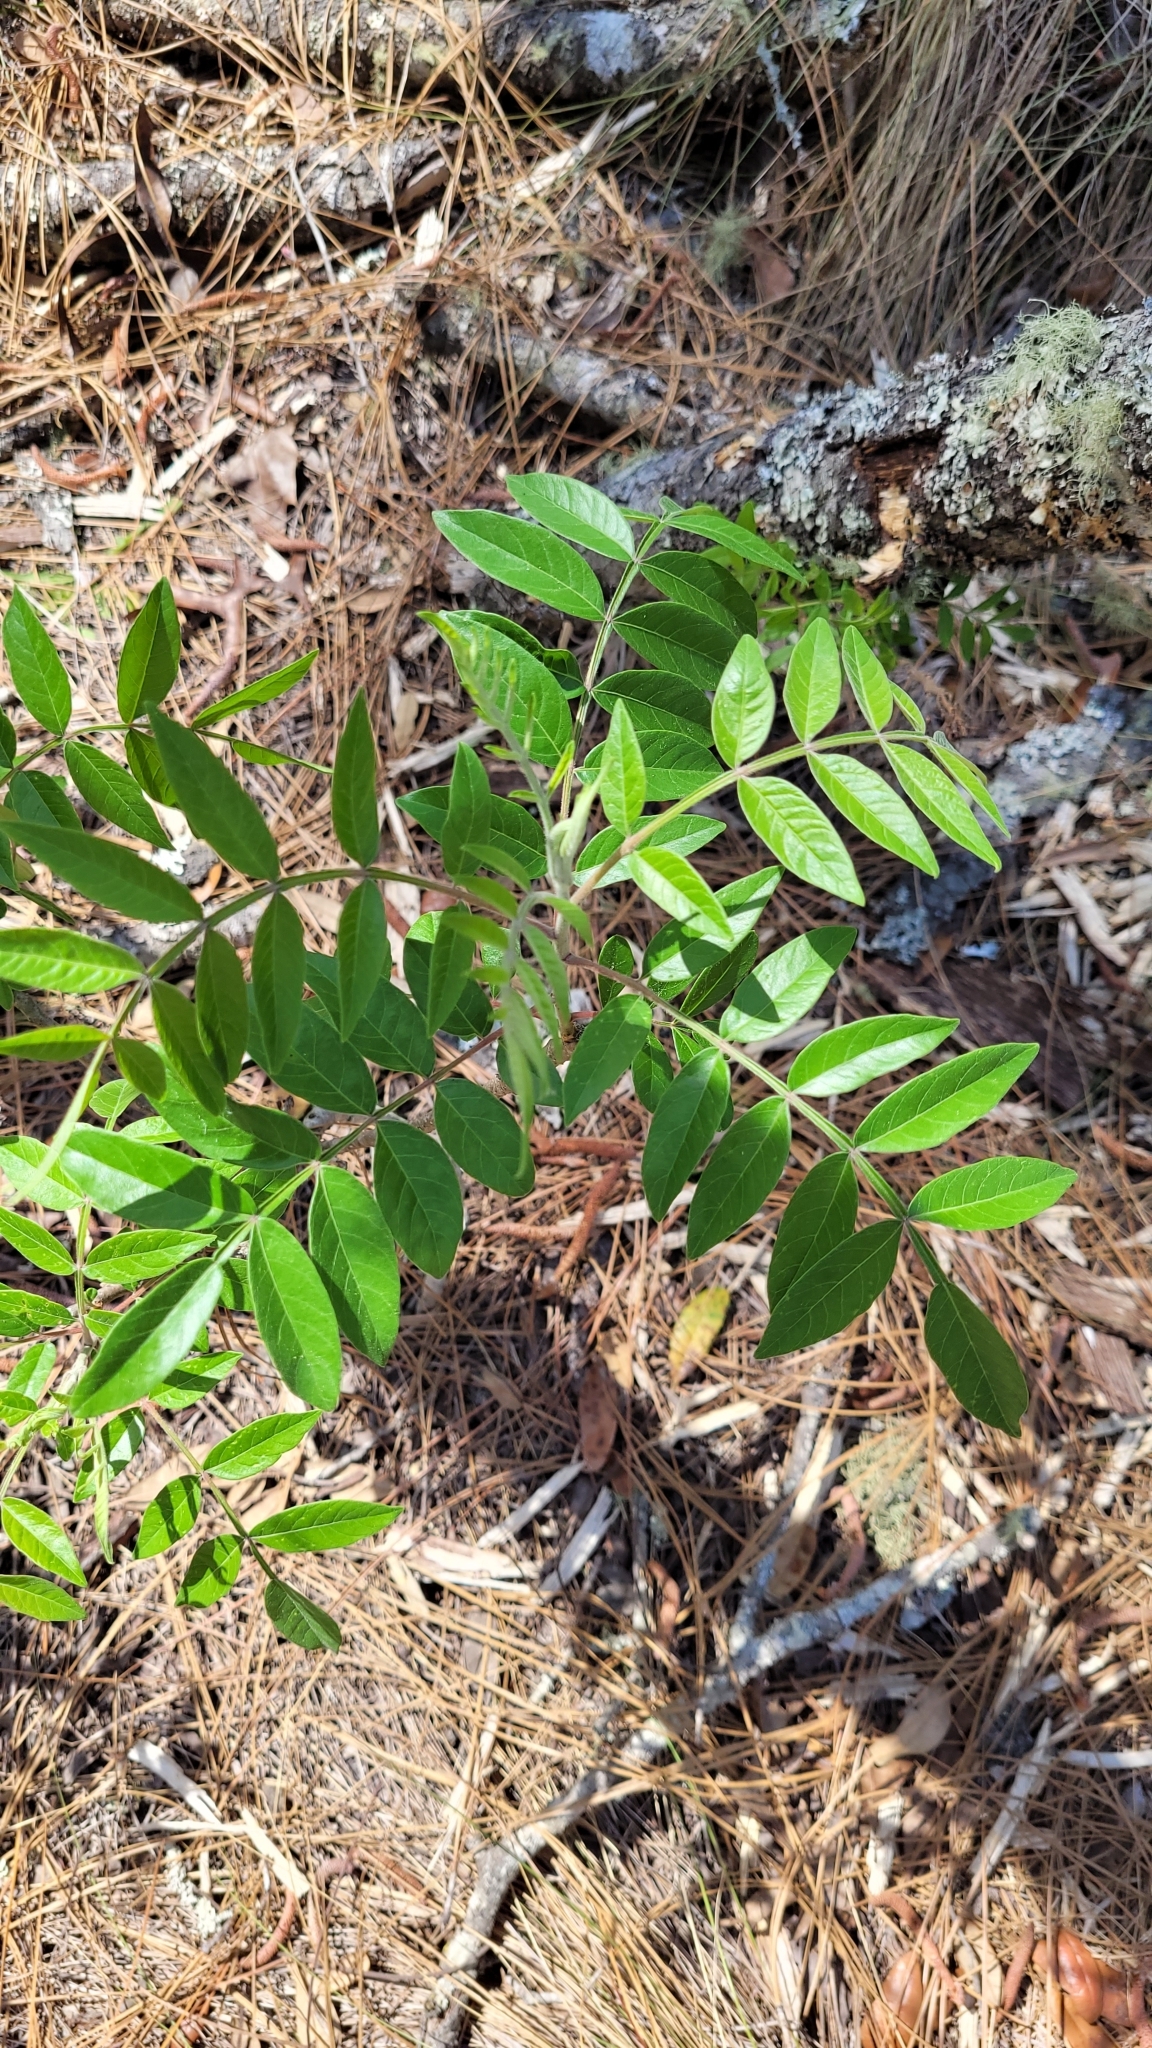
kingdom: Plantae
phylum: Tracheophyta
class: Magnoliopsida
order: Sapindales
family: Anacardiaceae
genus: Rhus
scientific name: Rhus copallina
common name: Shining sumac
